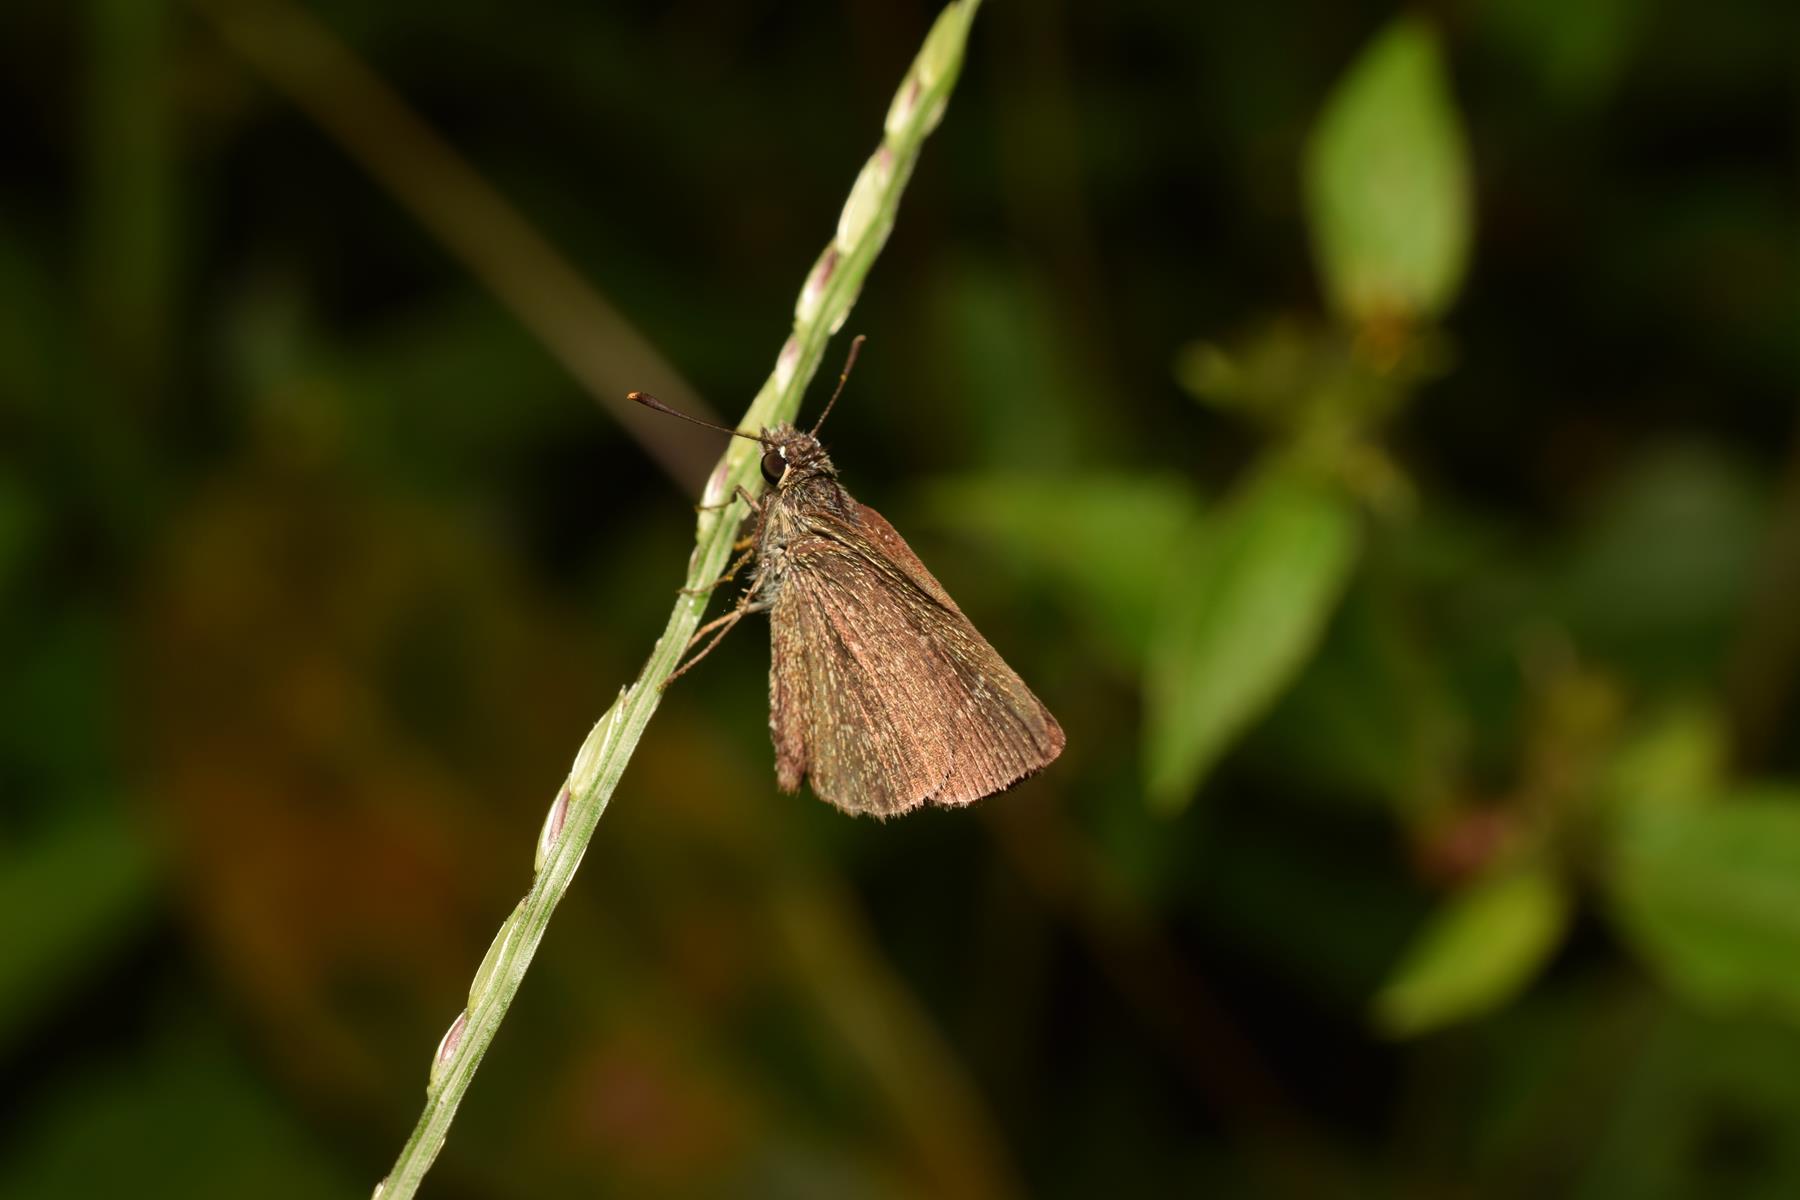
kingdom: Animalia
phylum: Arthropoda
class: Insecta
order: Lepidoptera
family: Hesperiidae
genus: Aeromachus
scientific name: Aeromachus pygmaeus
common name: Pygmy scrub hopper
